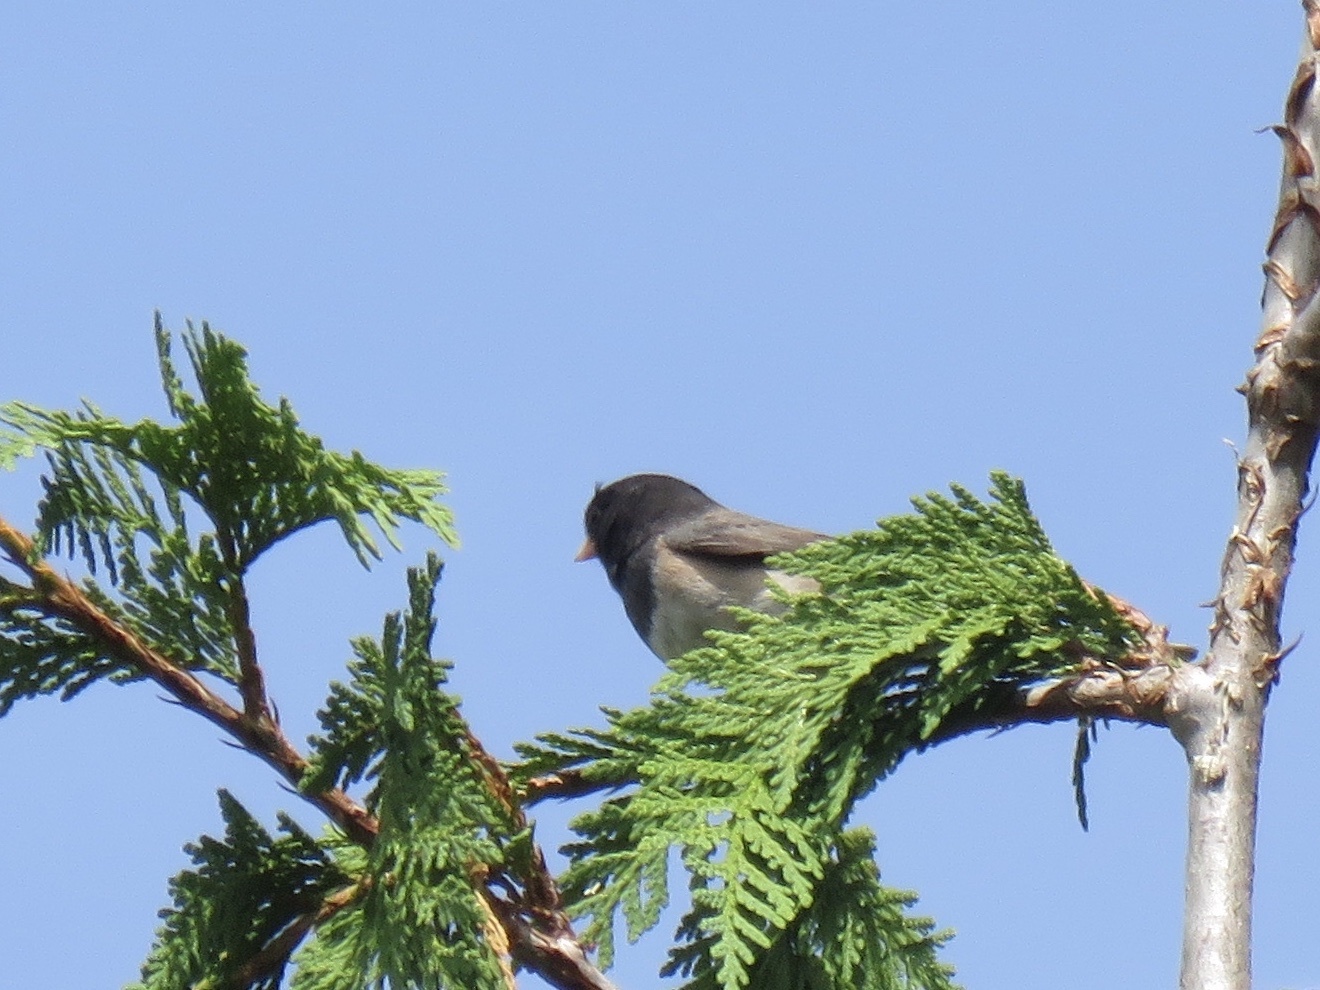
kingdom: Animalia
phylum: Chordata
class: Aves
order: Passeriformes
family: Passerellidae
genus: Junco
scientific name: Junco hyemalis
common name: Dark-eyed junco
